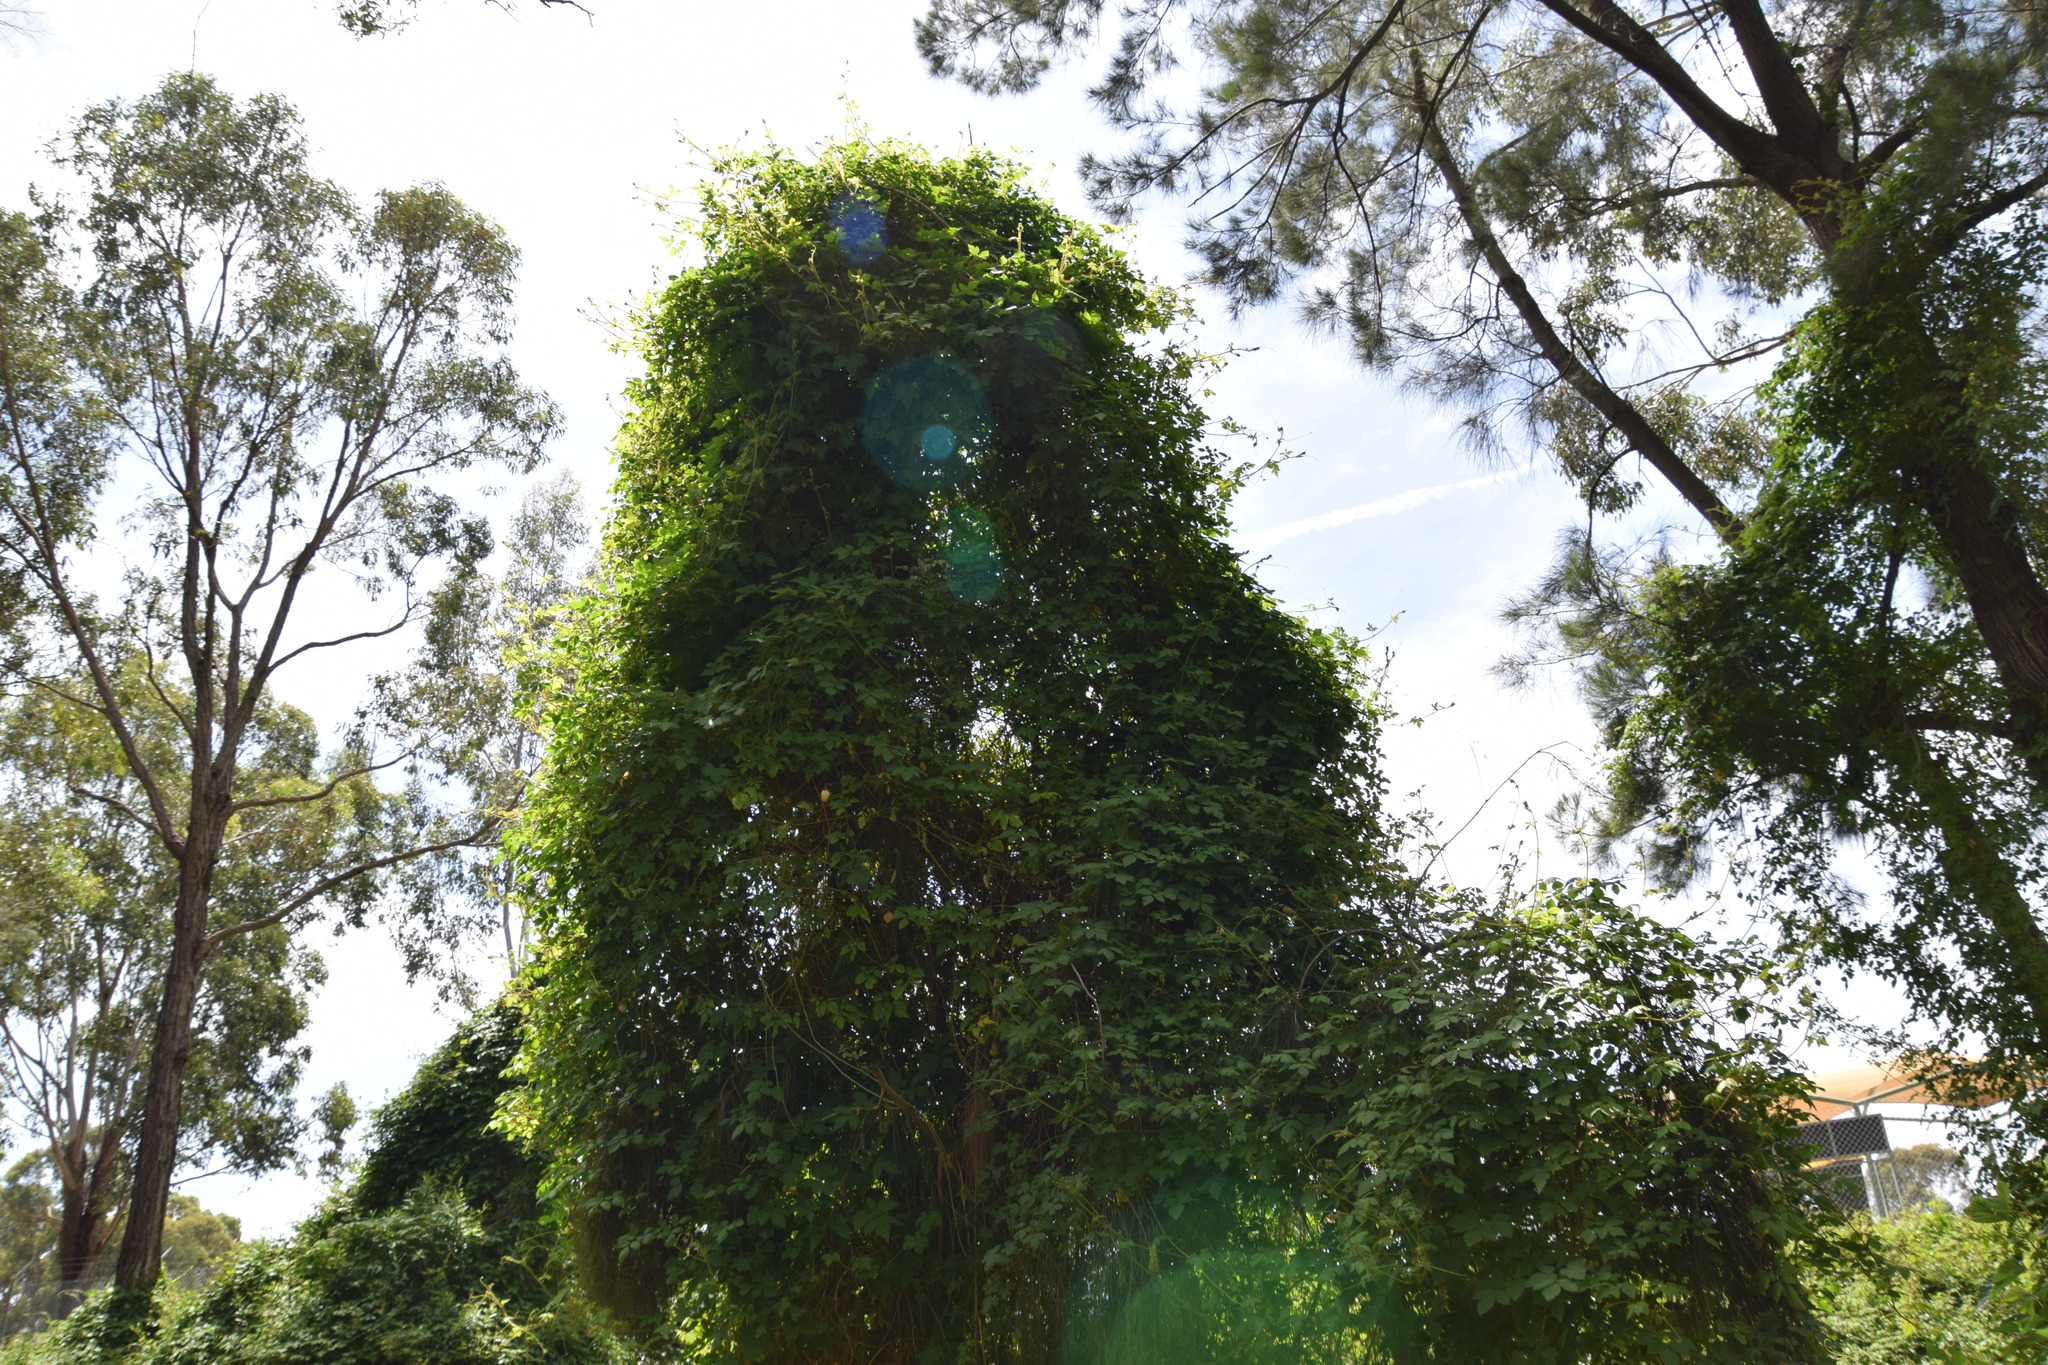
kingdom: Plantae
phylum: Tracheophyta
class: Magnoliopsida
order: Sapindales
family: Sapindaceae
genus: Cardiospermum
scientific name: Cardiospermum grandiflorum
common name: Balloon vine
